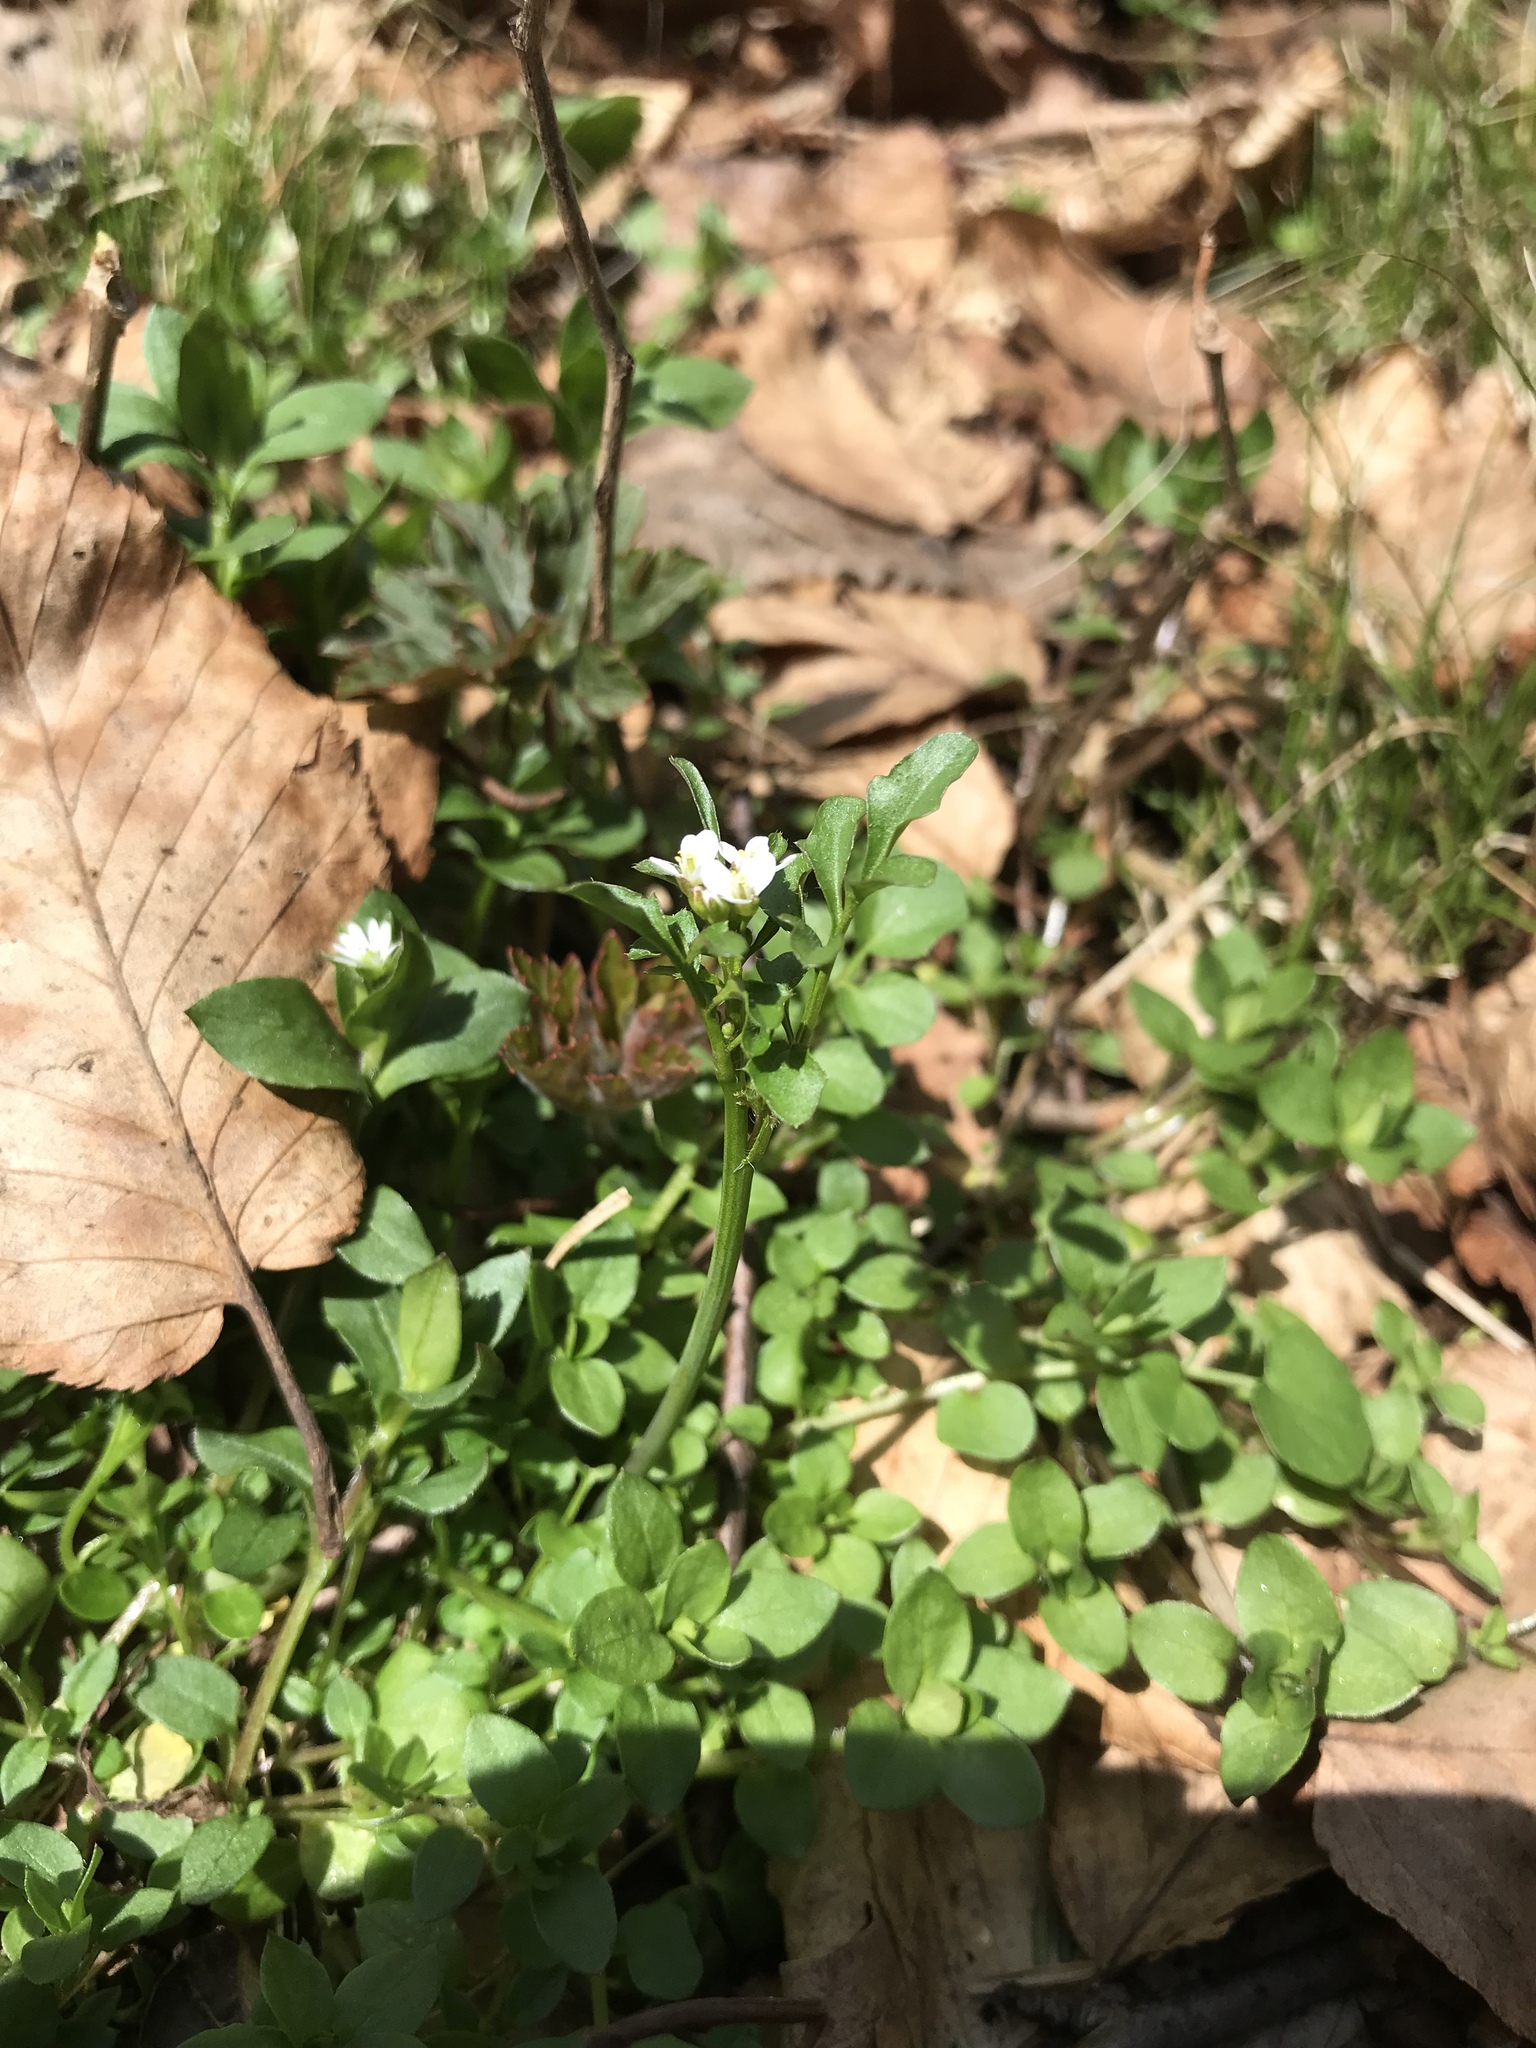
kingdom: Plantae
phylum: Tracheophyta
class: Magnoliopsida
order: Brassicales
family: Brassicaceae
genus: Cardamine
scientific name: Cardamine hirsuta
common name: Hairy bittercress
